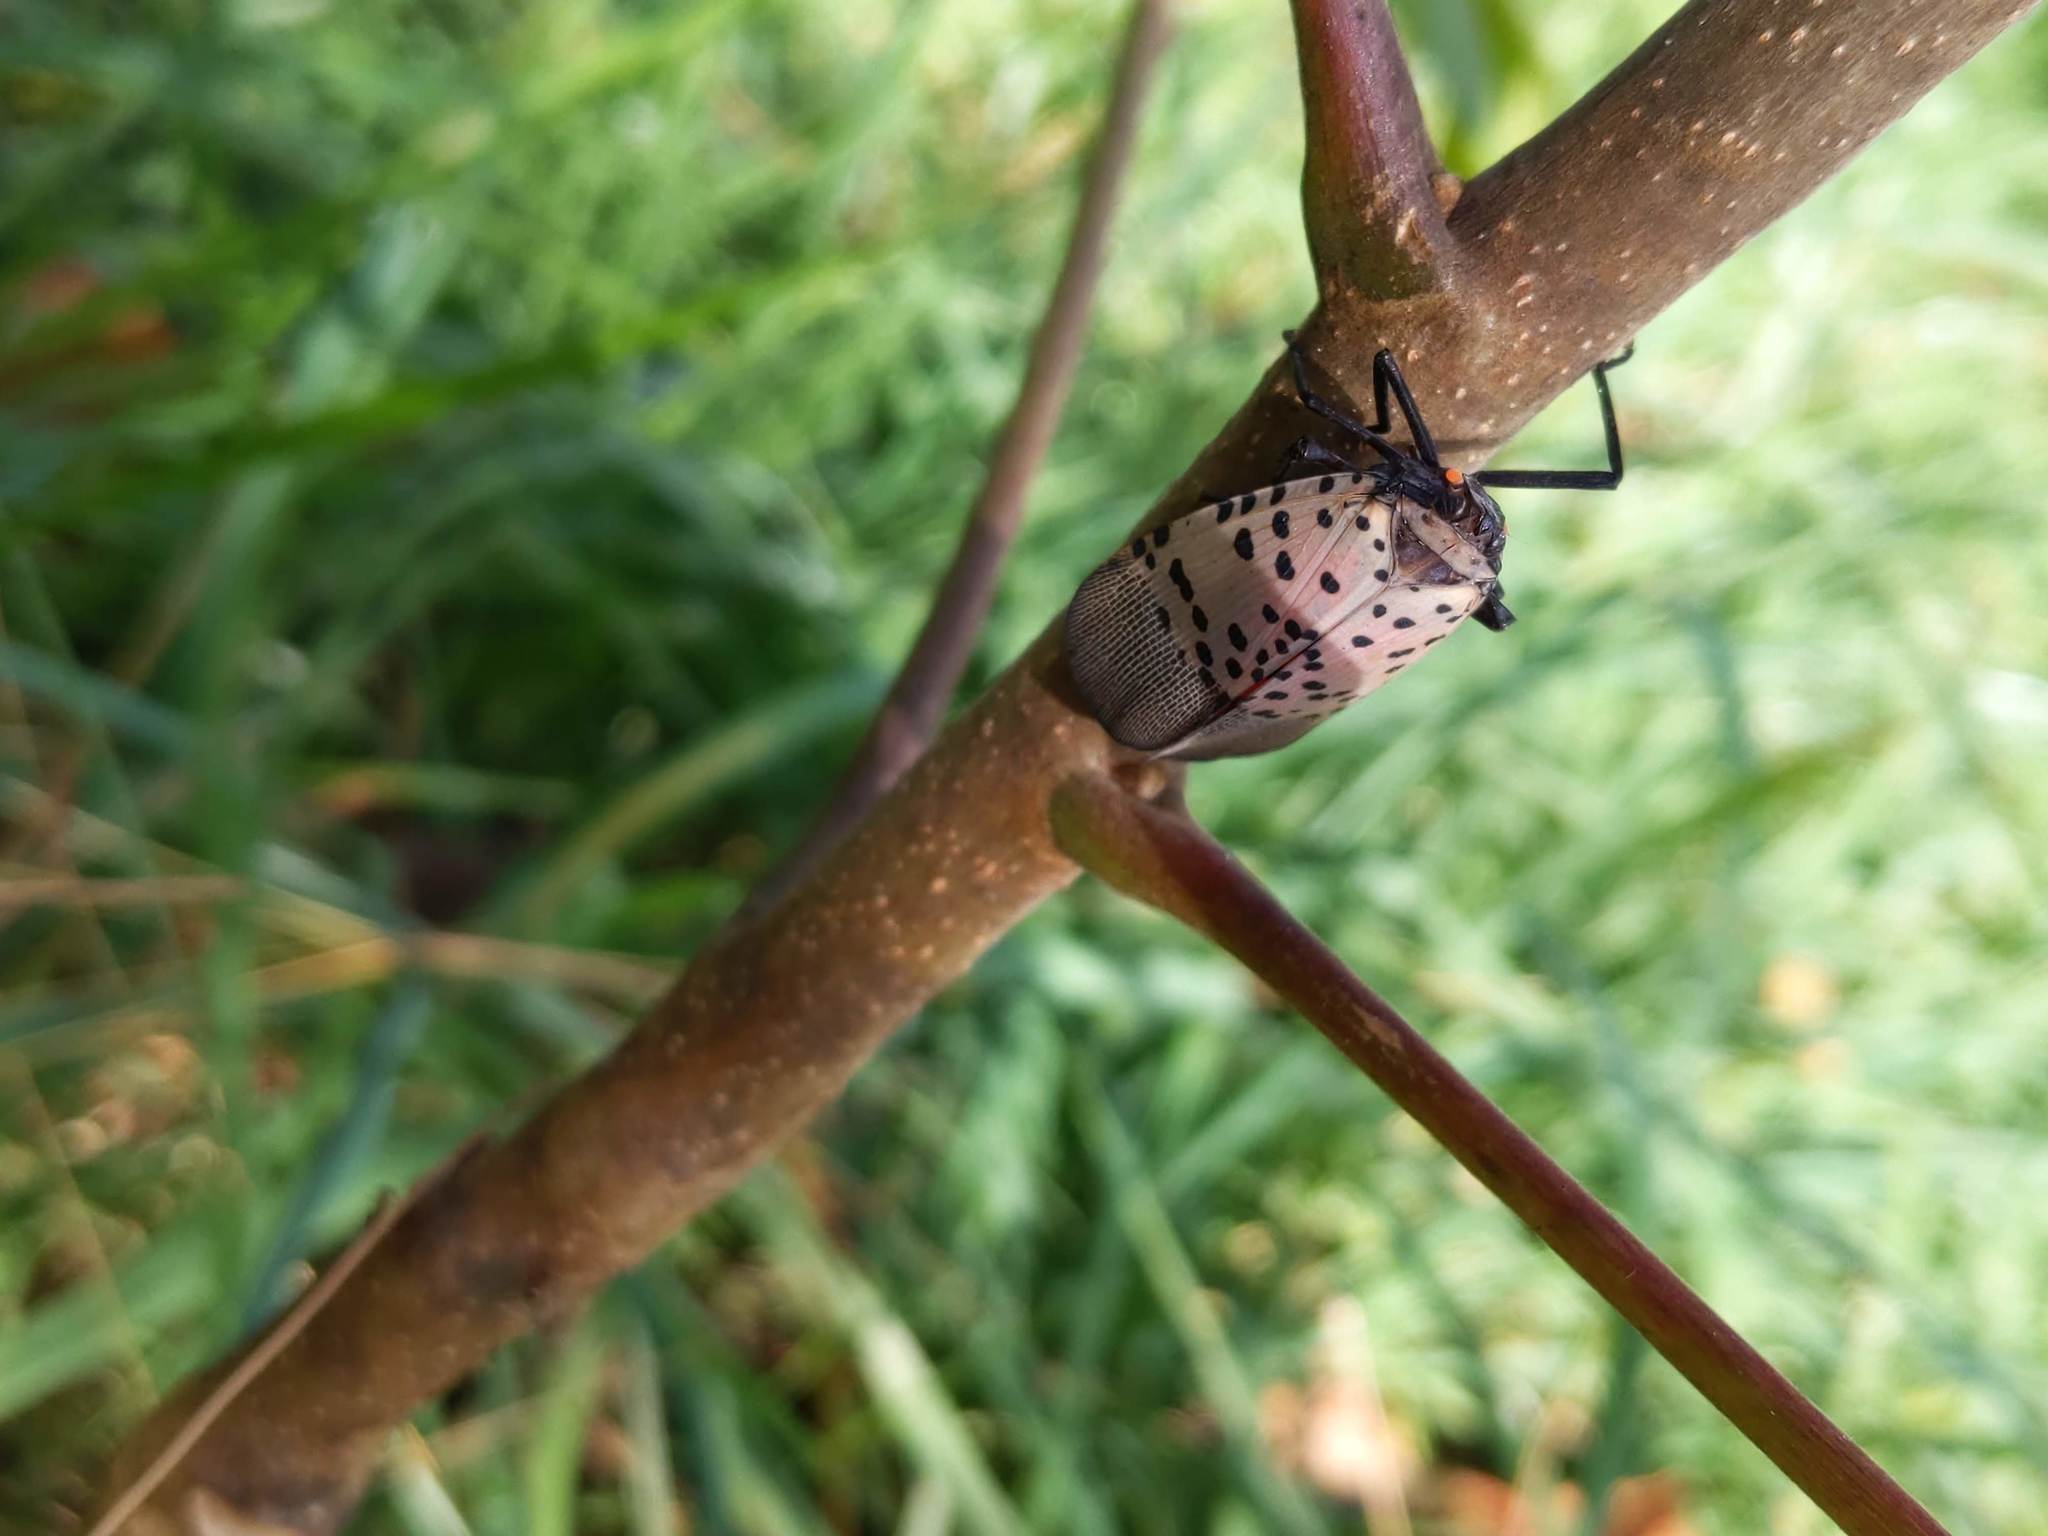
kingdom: Animalia
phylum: Arthropoda
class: Insecta
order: Hemiptera
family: Fulgoridae
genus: Lycorma
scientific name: Lycorma delicatula
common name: Spotted lanternfly
